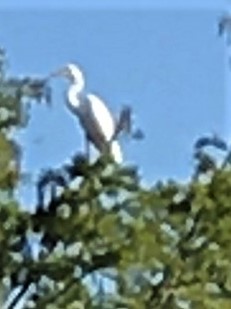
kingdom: Animalia
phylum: Chordata
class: Aves
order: Pelecaniformes
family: Ardeidae
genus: Ardea
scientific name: Ardea alba
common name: Great egret
